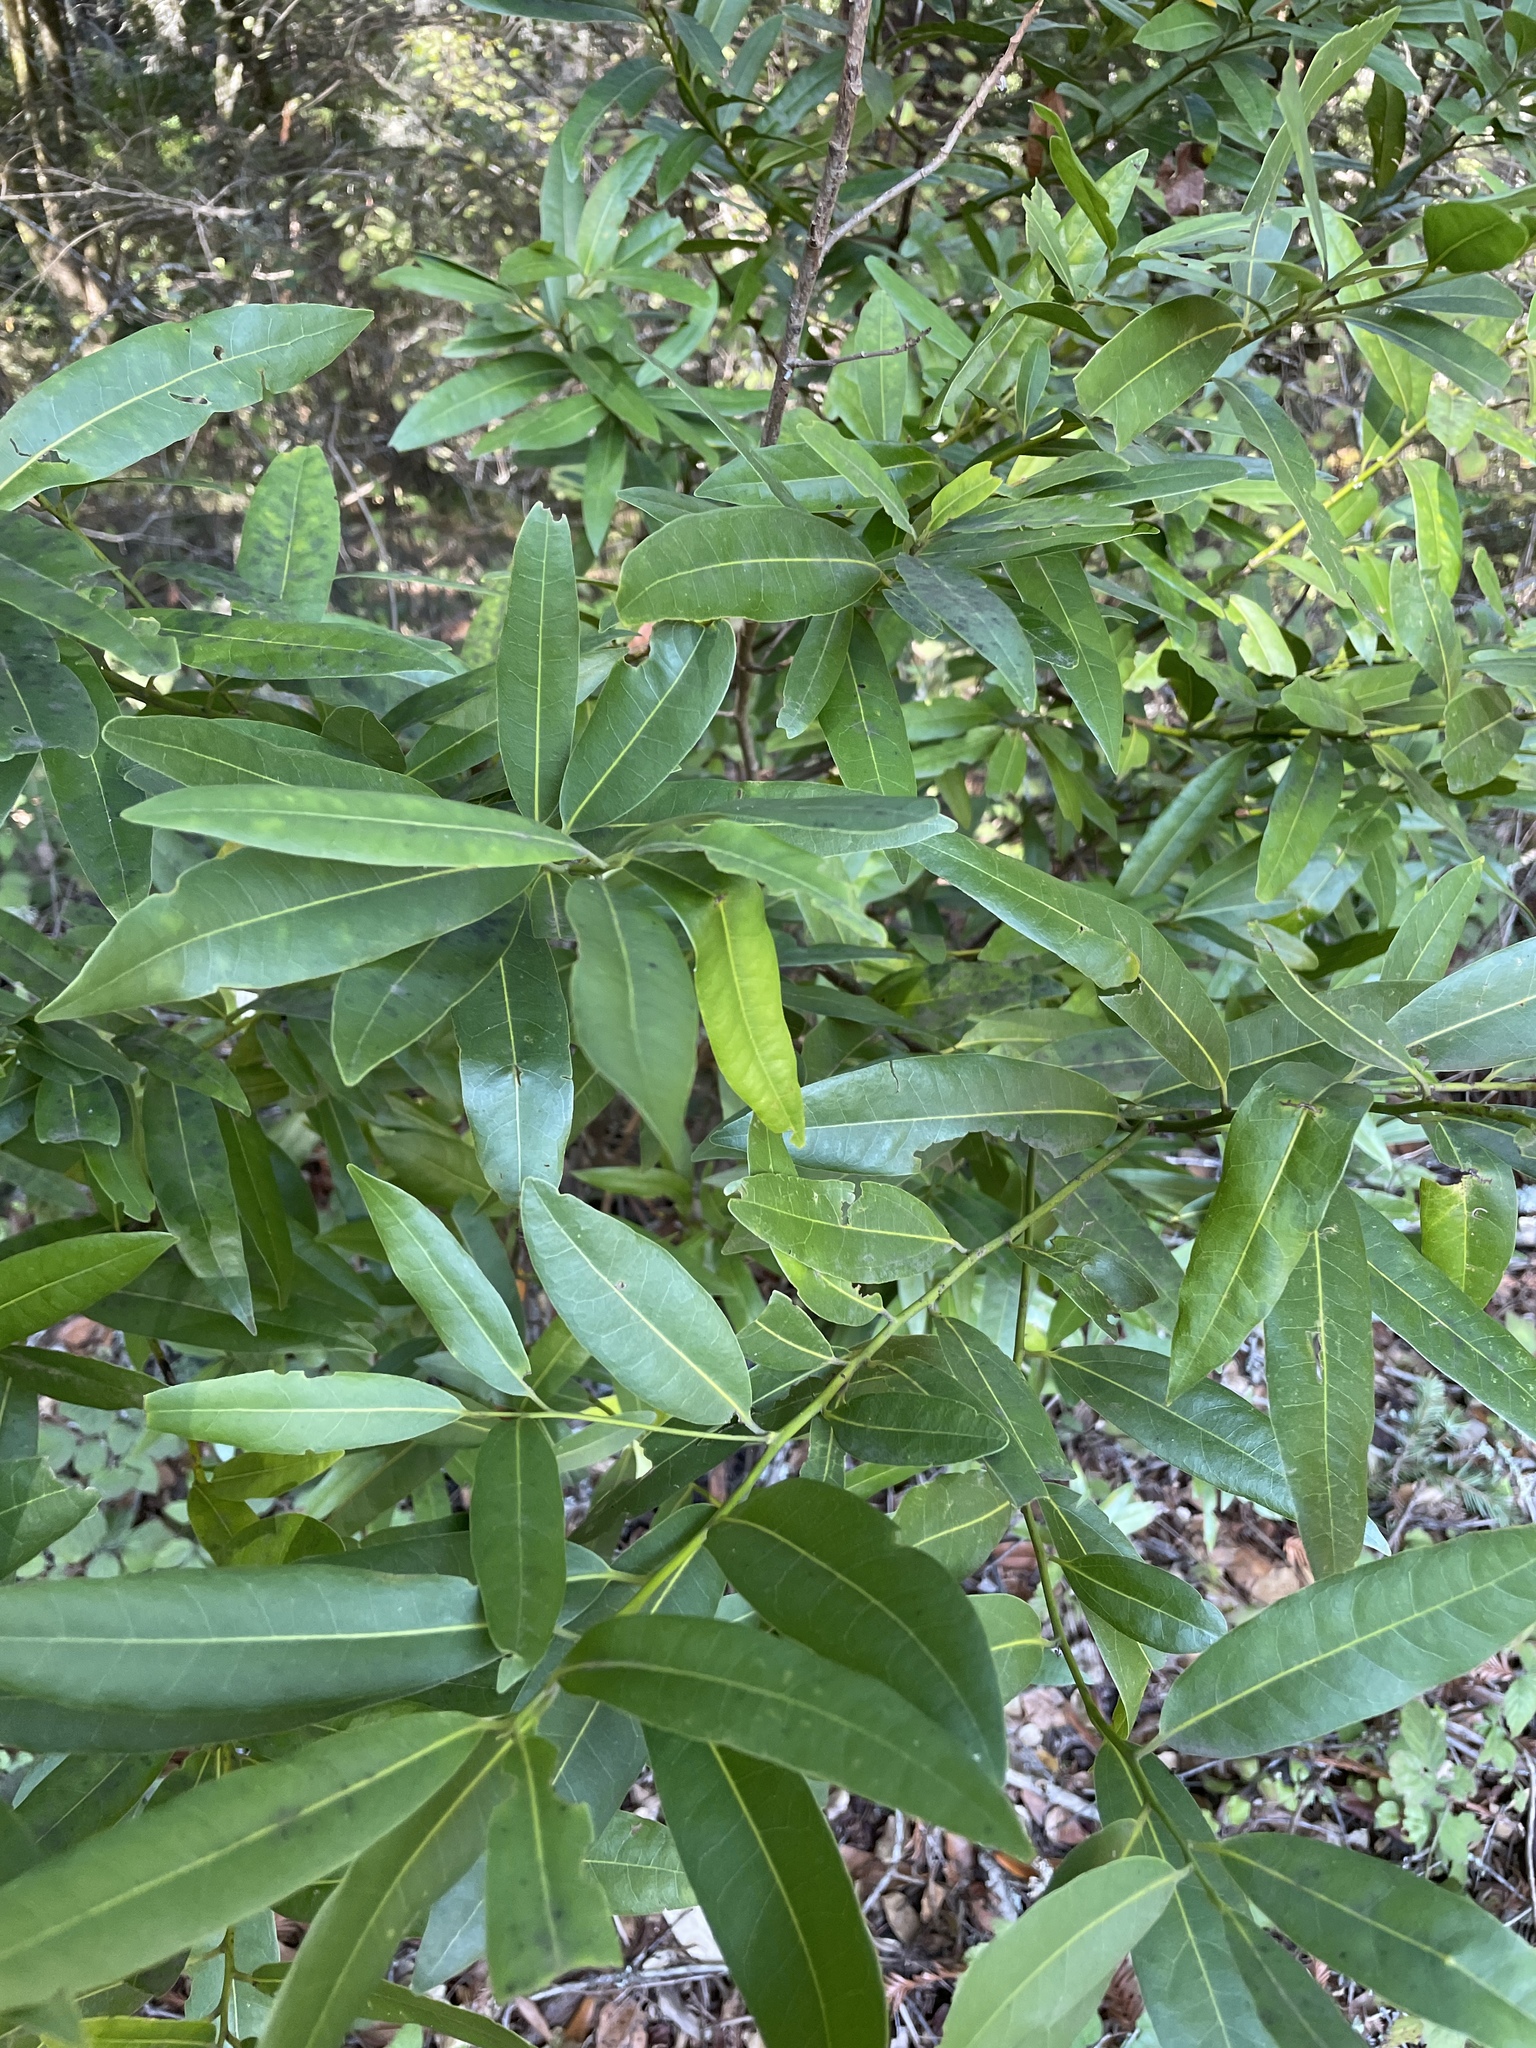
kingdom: Plantae
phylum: Tracheophyta
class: Magnoliopsida
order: Laurales
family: Lauraceae
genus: Umbellularia
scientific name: Umbellularia californica
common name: California bay
